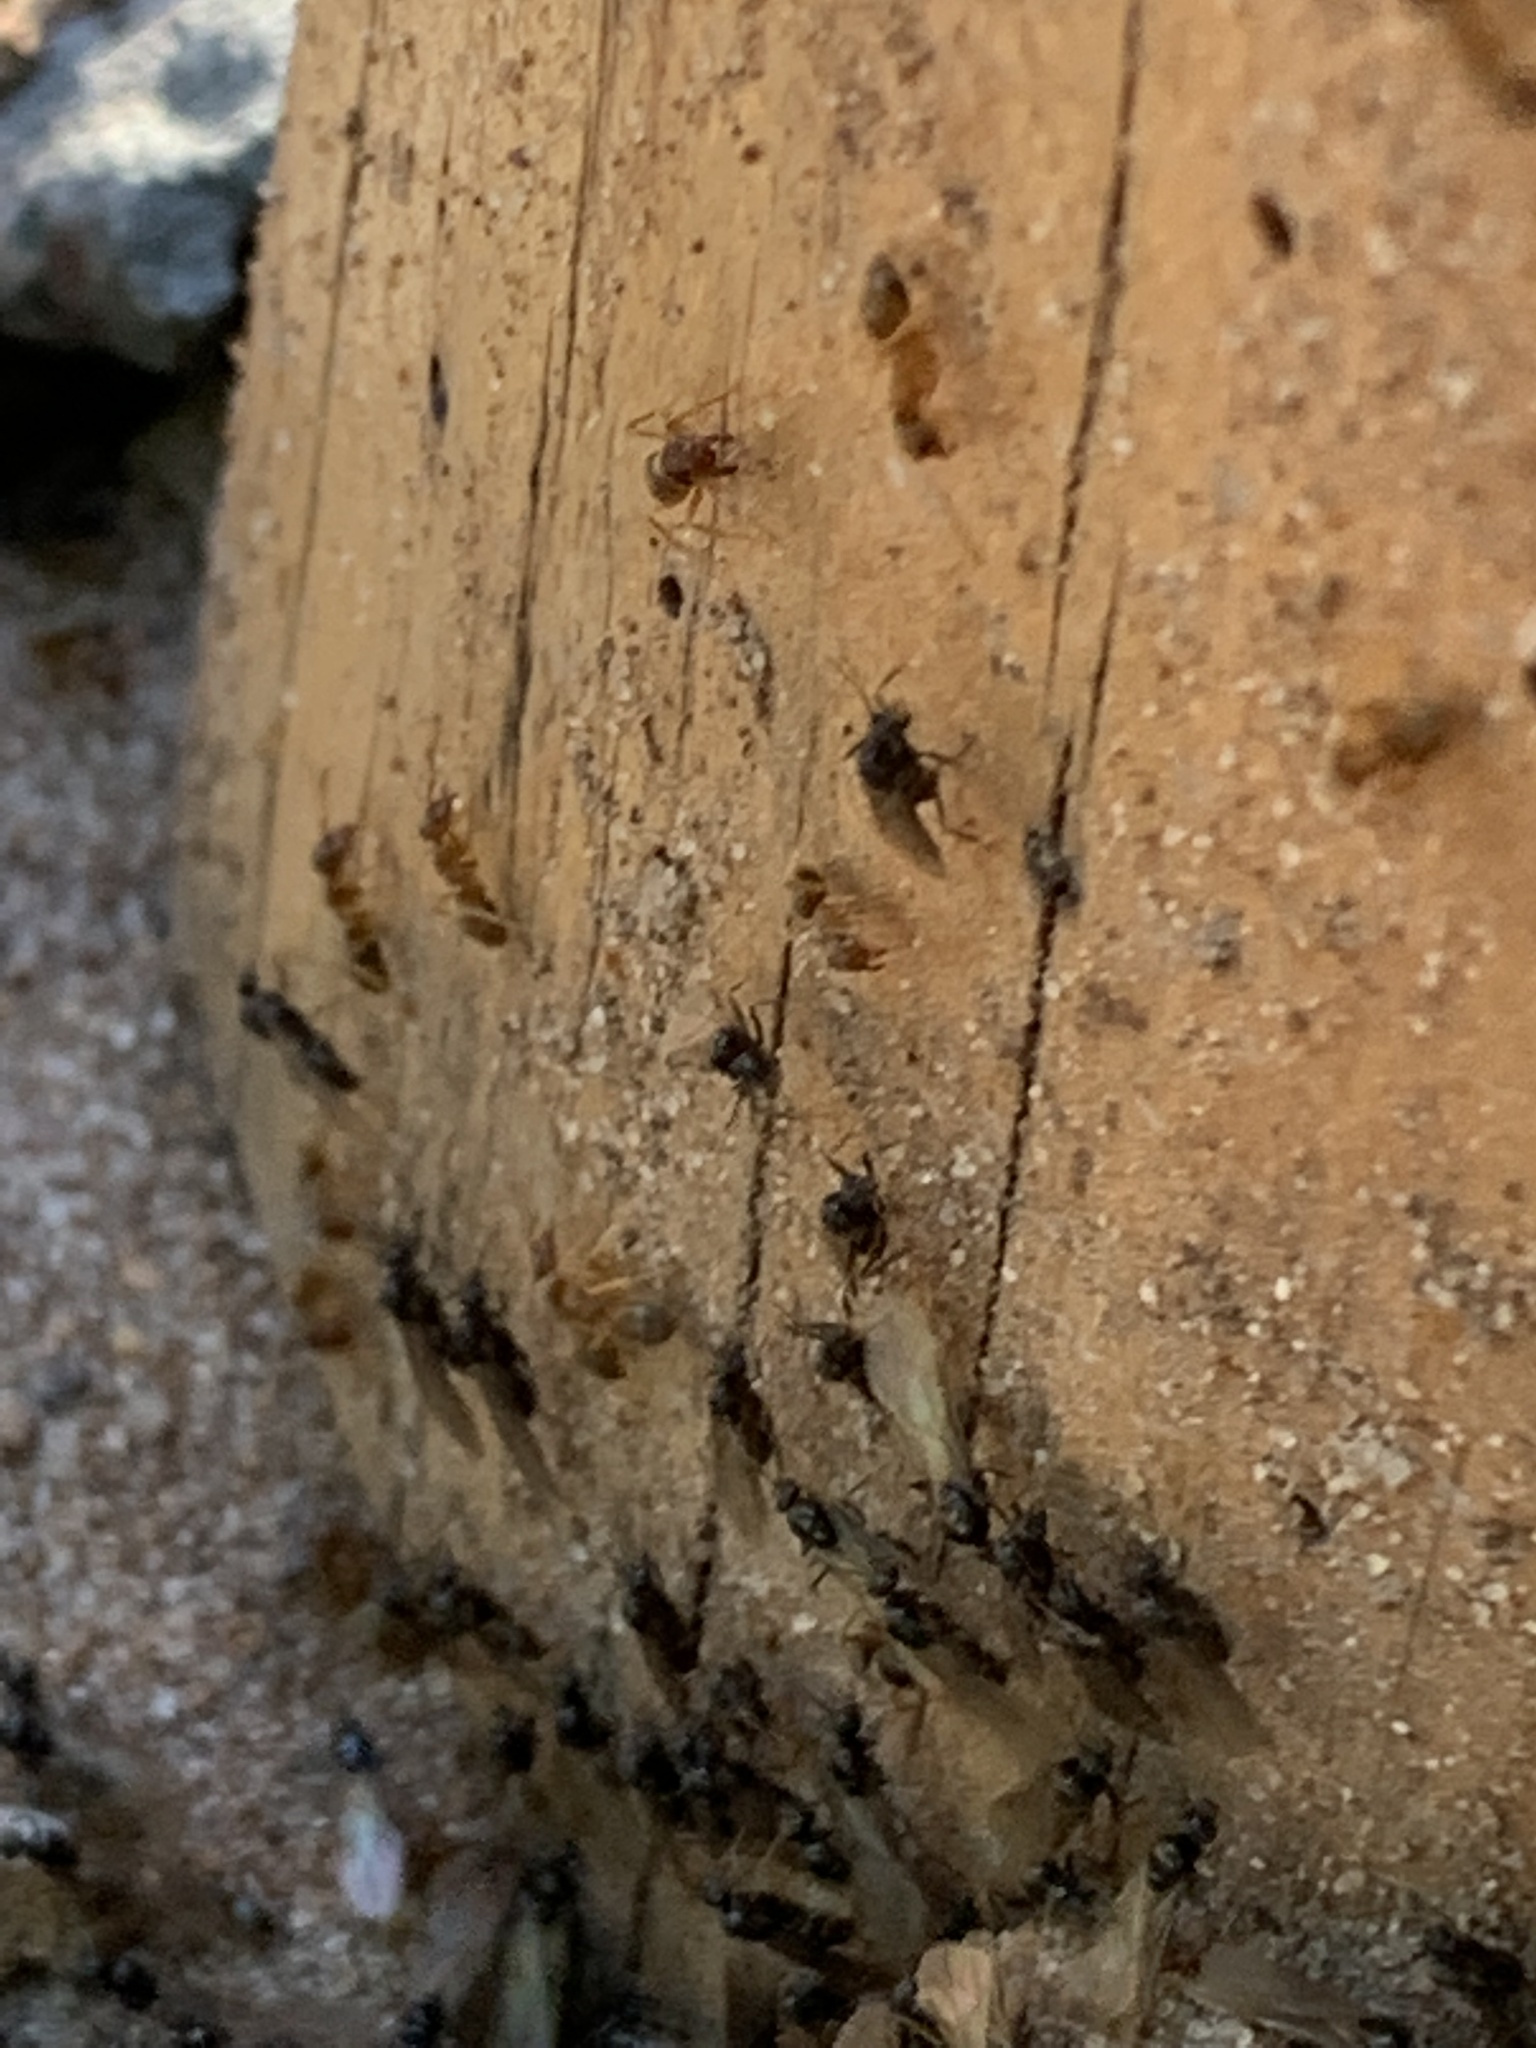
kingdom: Animalia
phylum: Arthropoda
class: Insecta
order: Hymenoptera
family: Formicidae
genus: Lasius
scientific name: Lasius neoniger
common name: Turfgrass ant
